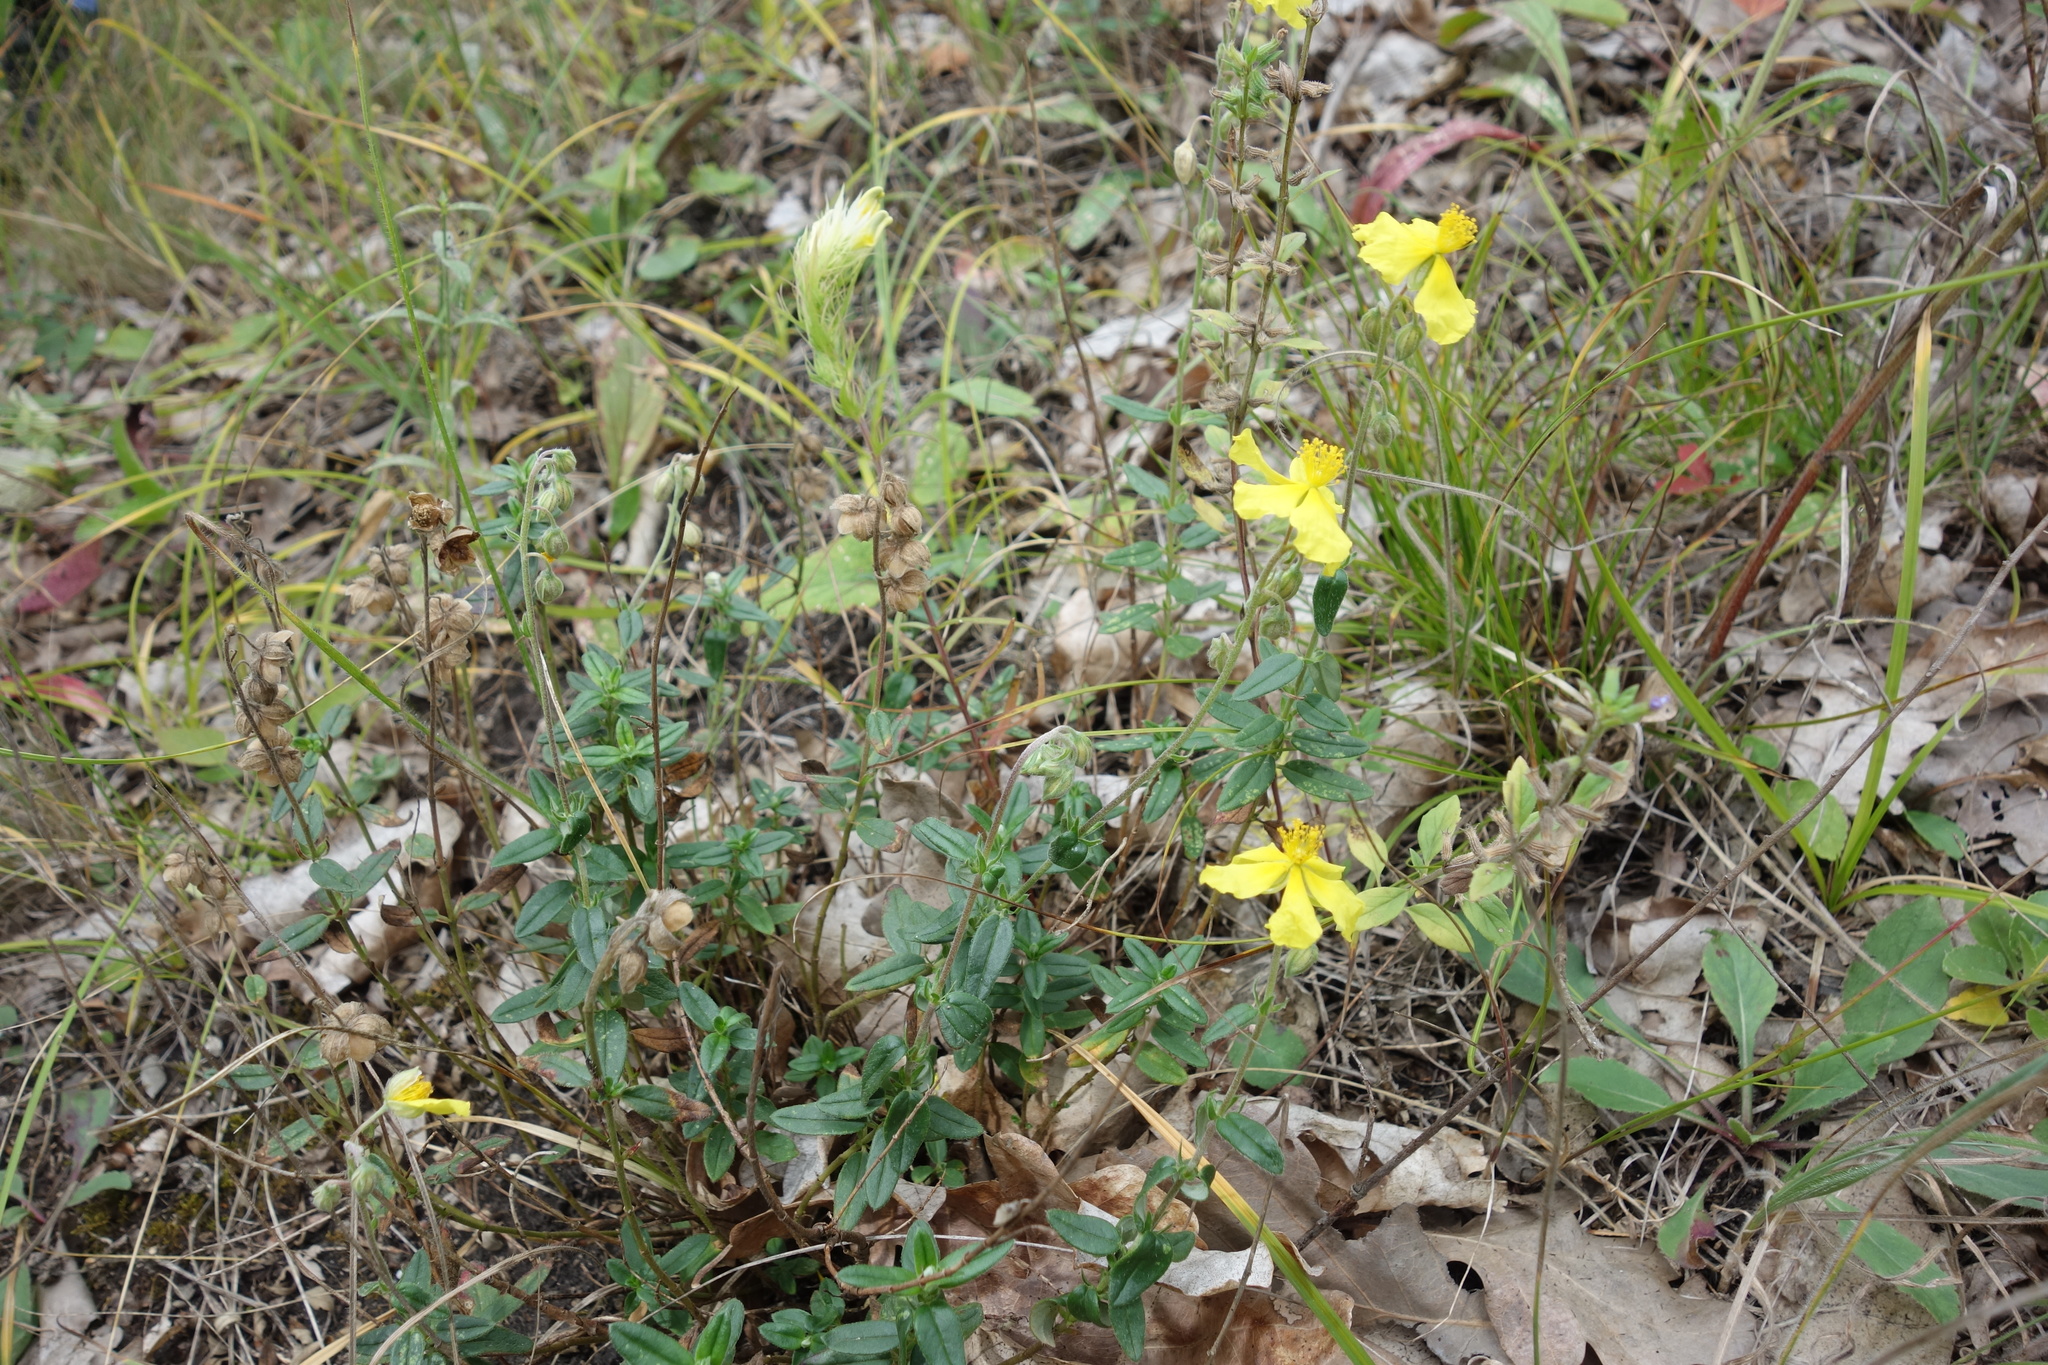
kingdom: Plantae
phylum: Tracheophyta
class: Magnoliopsida
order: Malvales
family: Cistaceae
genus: Helianthemum
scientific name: Helianthemum nummularium
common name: Common rock-rose
